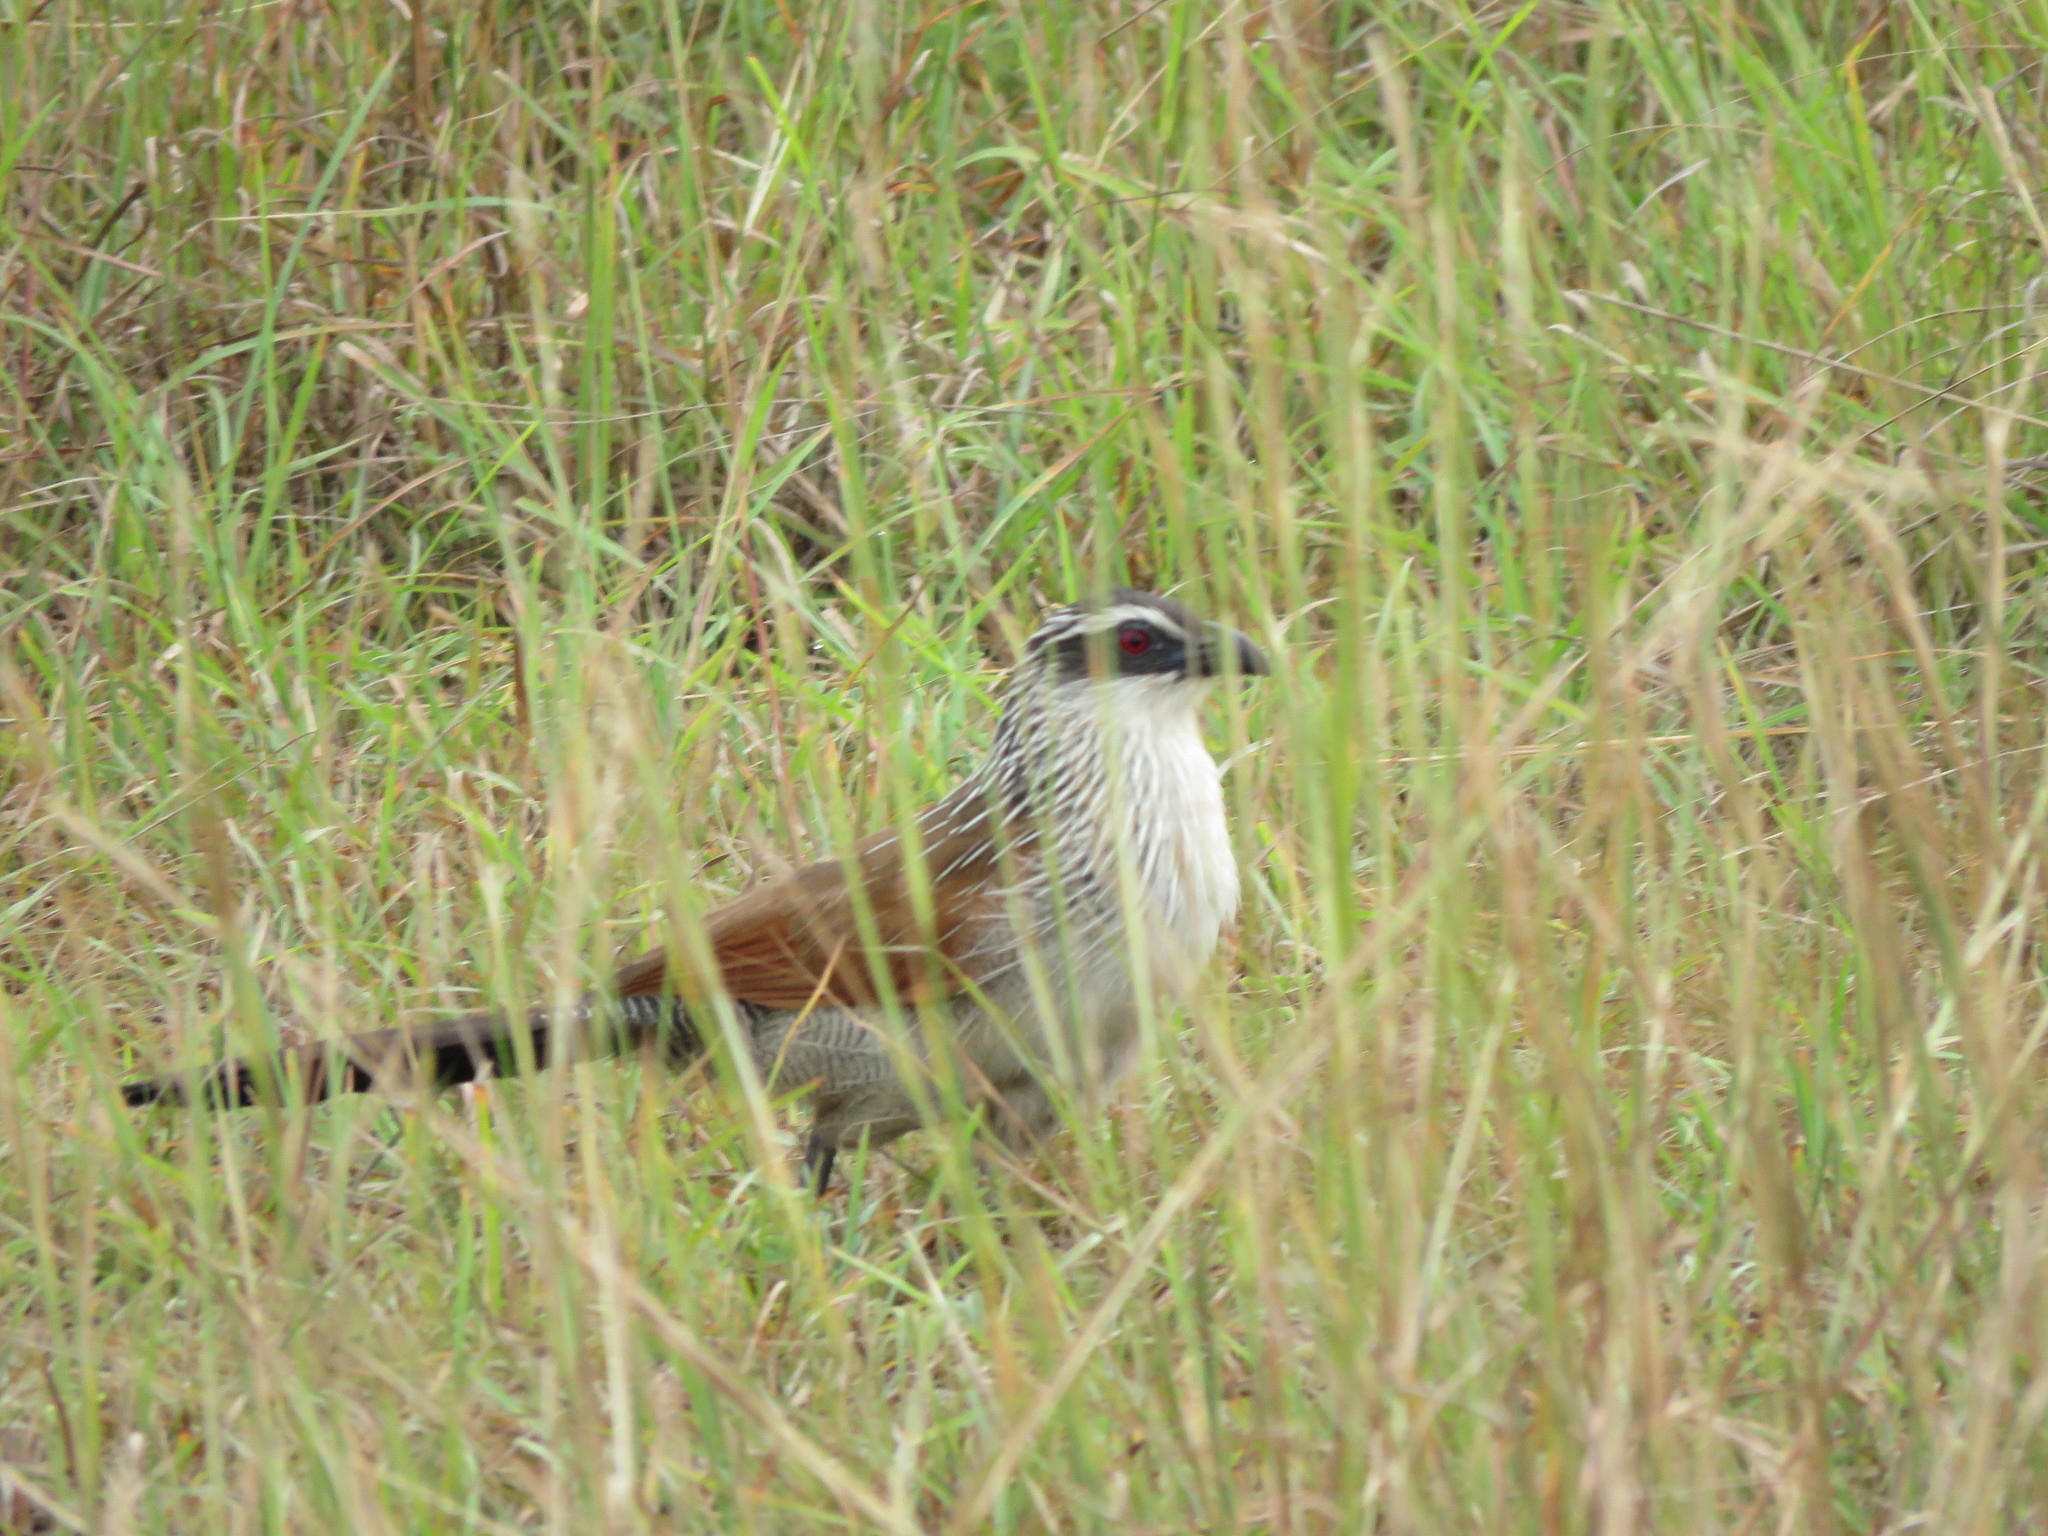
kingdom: Animalia
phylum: Chordata
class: Aves
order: Cuculiformes
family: Cuculidae
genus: Centropus
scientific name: Centropus superciliosus
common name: White-browed coucal
